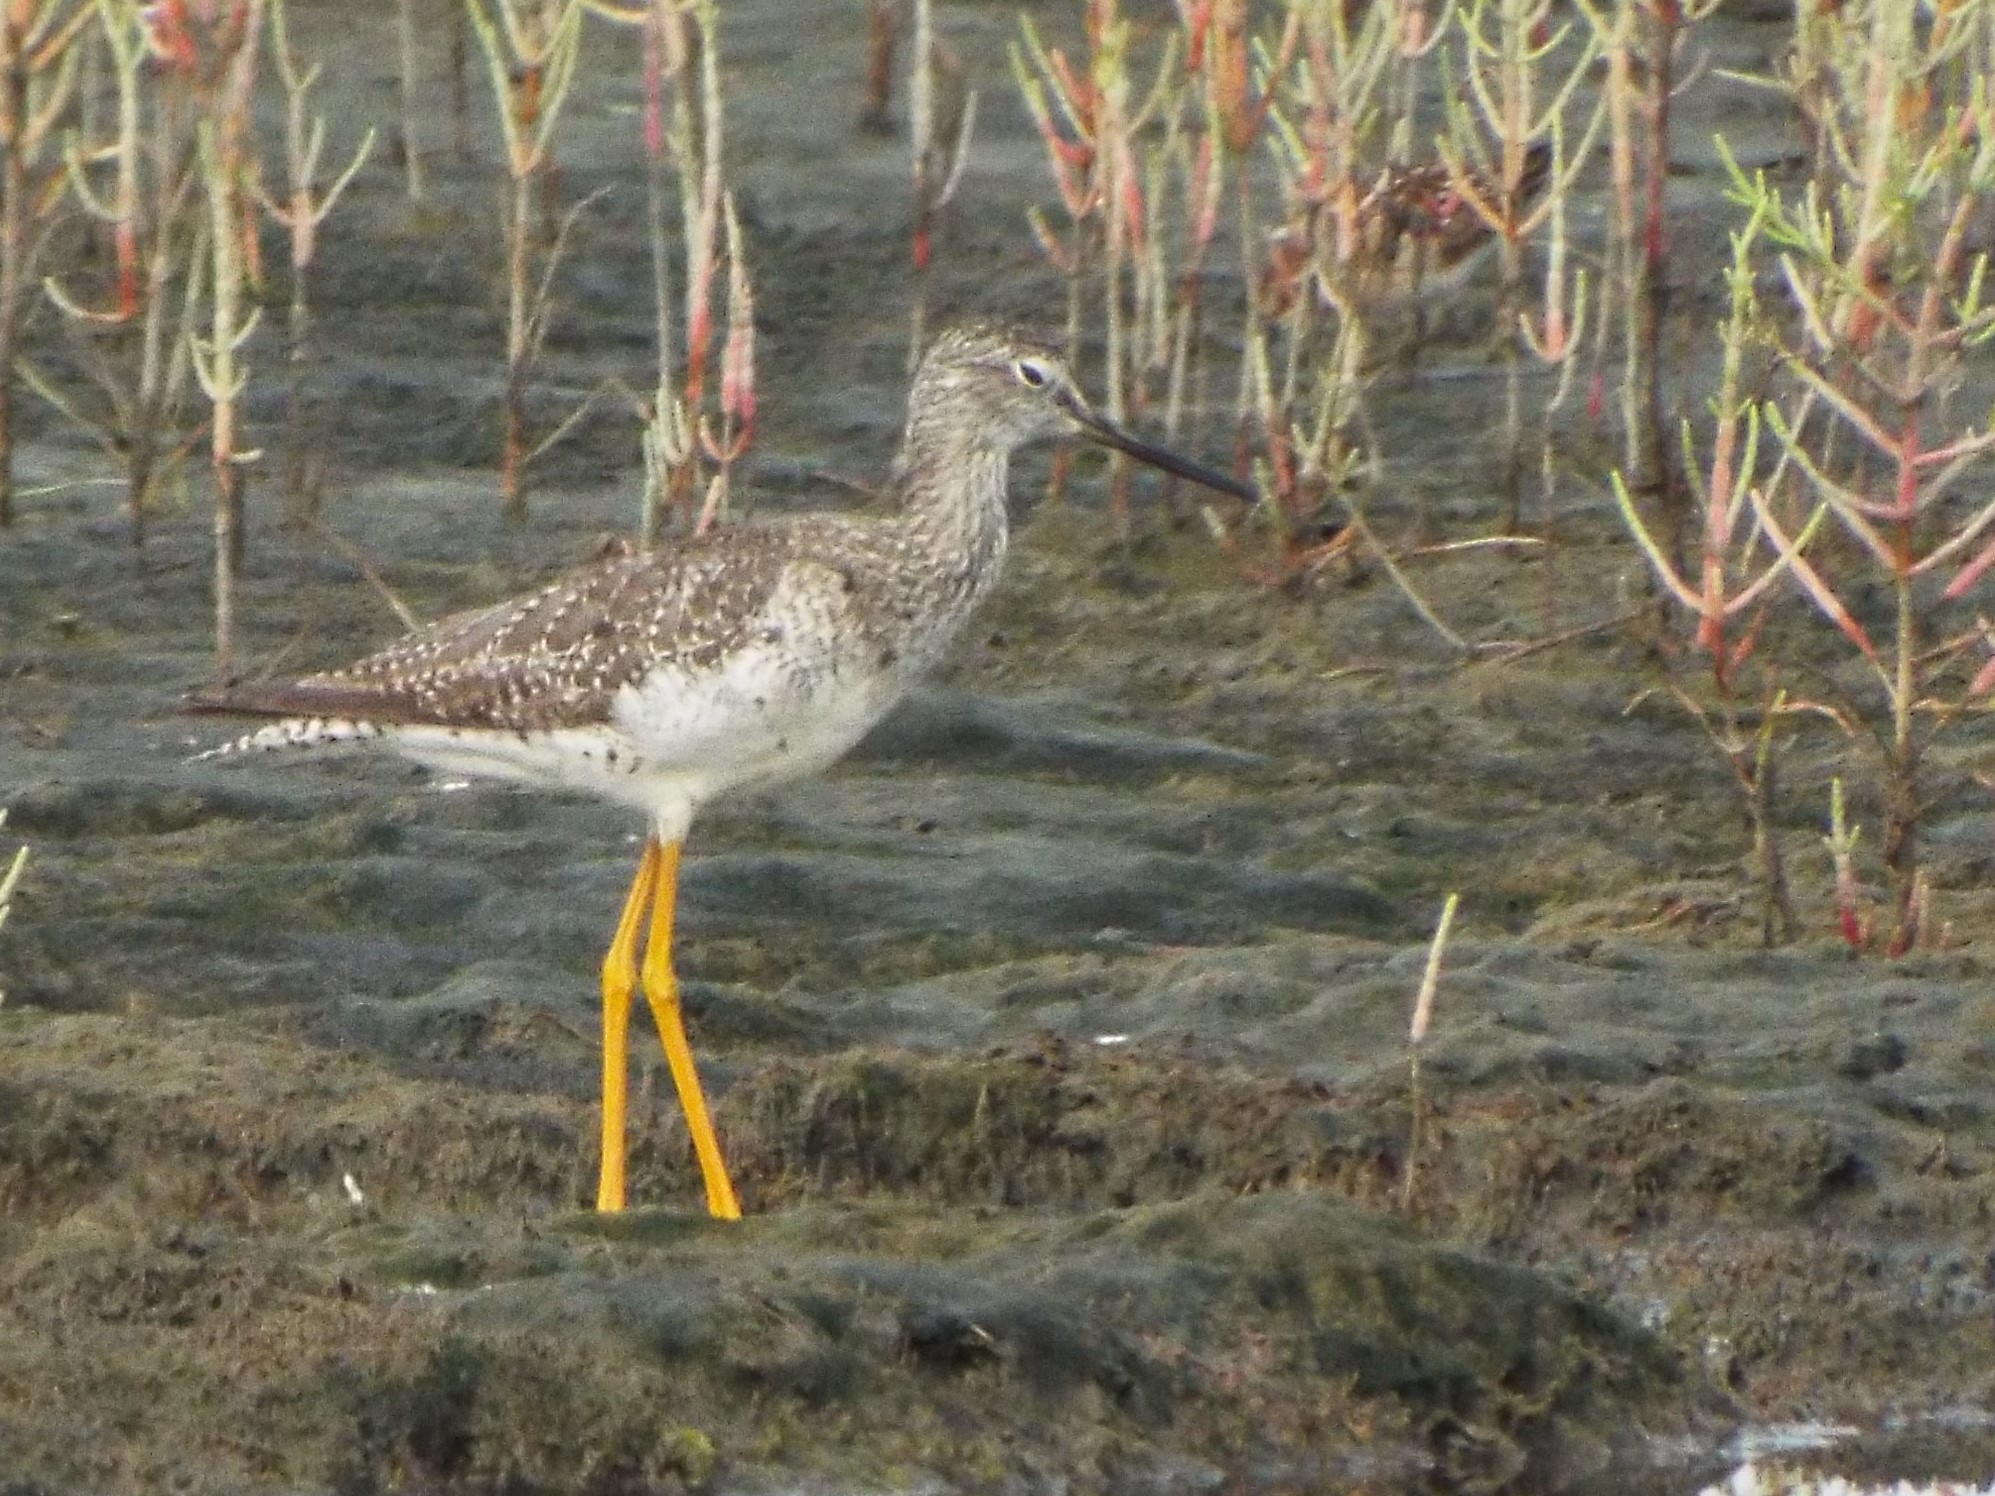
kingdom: Animalia
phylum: Chordata
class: Aves
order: Charadriiformes
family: Scolopacidae
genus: Tringa
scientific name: Tringa melanoleuca
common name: Greater yellowlegs
